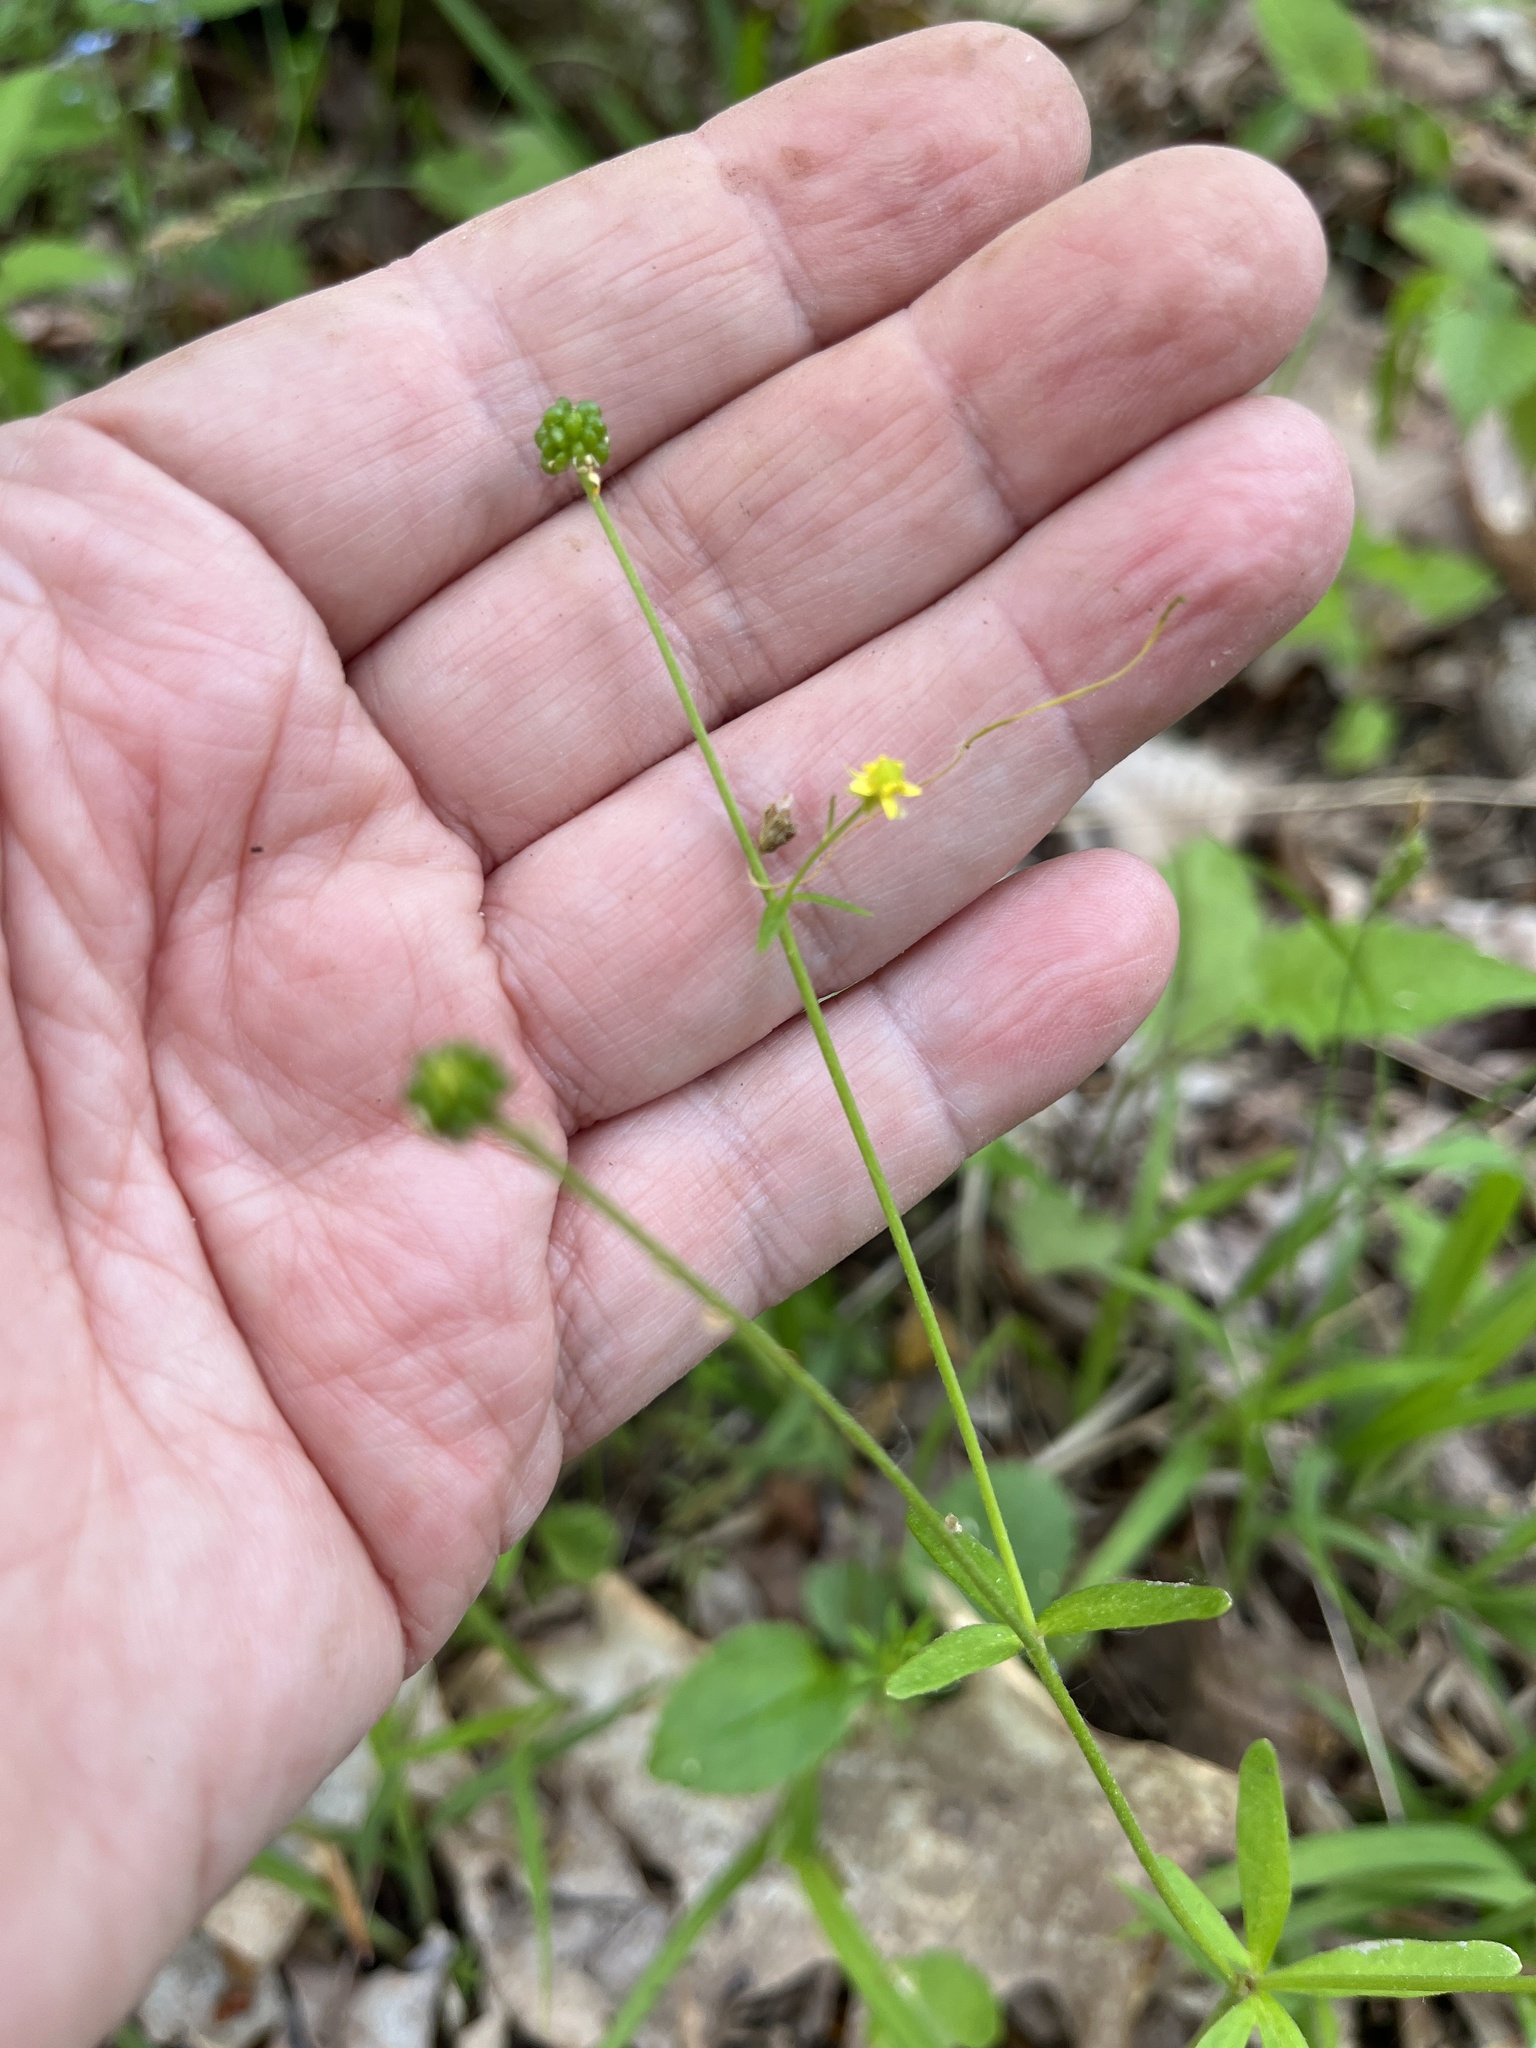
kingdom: Plantae
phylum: Tracheophyta
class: Magnoliopsida
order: Ranunculales
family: Ranunculaceae
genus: Ranunculus
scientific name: Ranunculus abortivus
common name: Early wood buttercup
